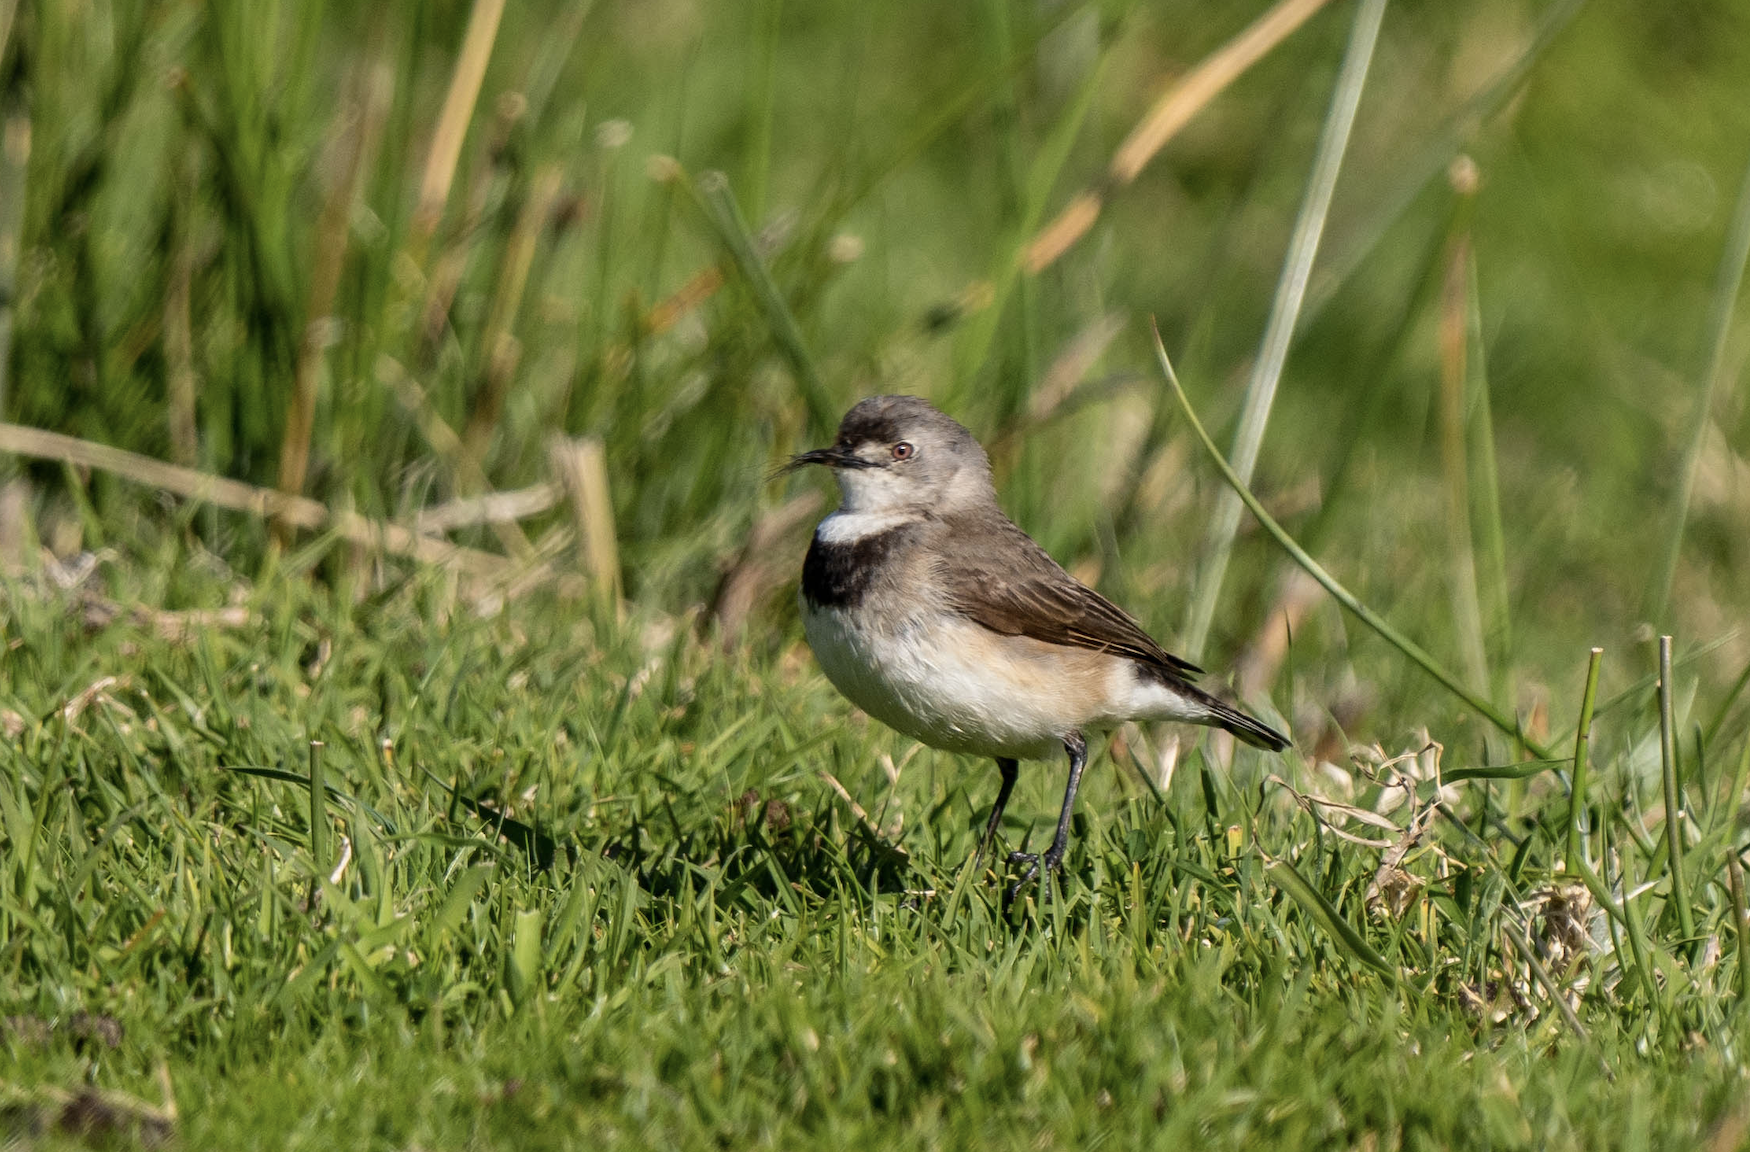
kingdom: Animalia
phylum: Chordata
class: Aves
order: Passeriformes
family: Meliphagidae
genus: Epthianura
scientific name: Epthianura albifrons
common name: White-fronted chat
